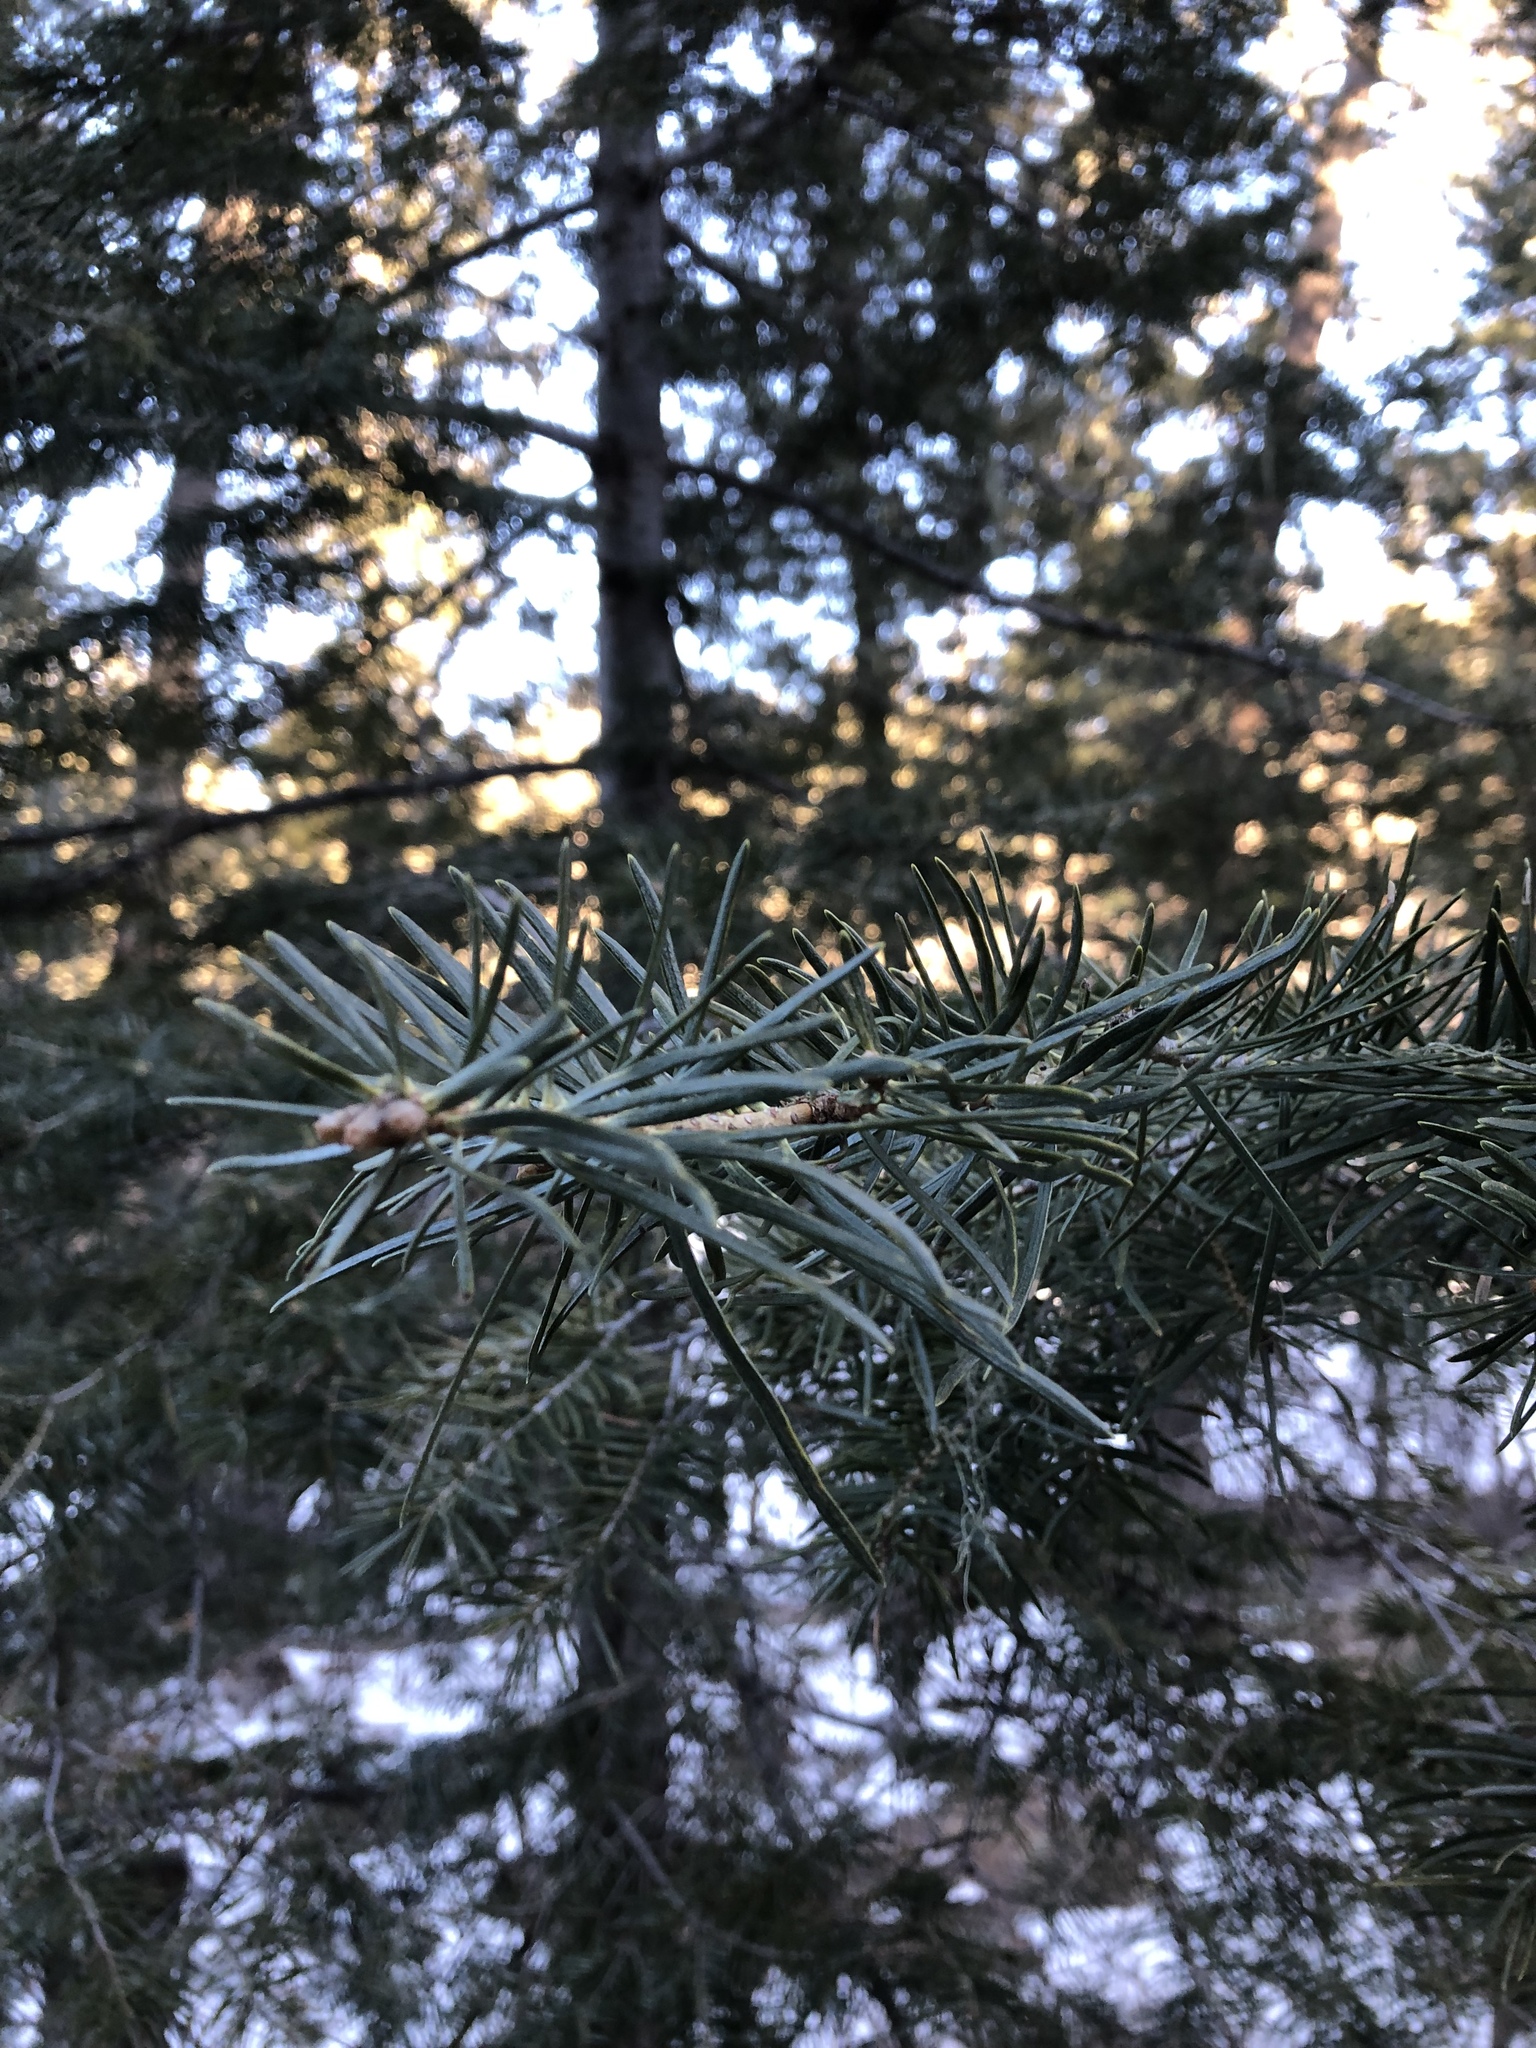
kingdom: Plantae
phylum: Tracheophyta
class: Pinopsida
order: Pinales
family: Pinaceae
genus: Pseudotsuga
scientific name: Pseudotsuga menziesii
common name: Douglas fir
